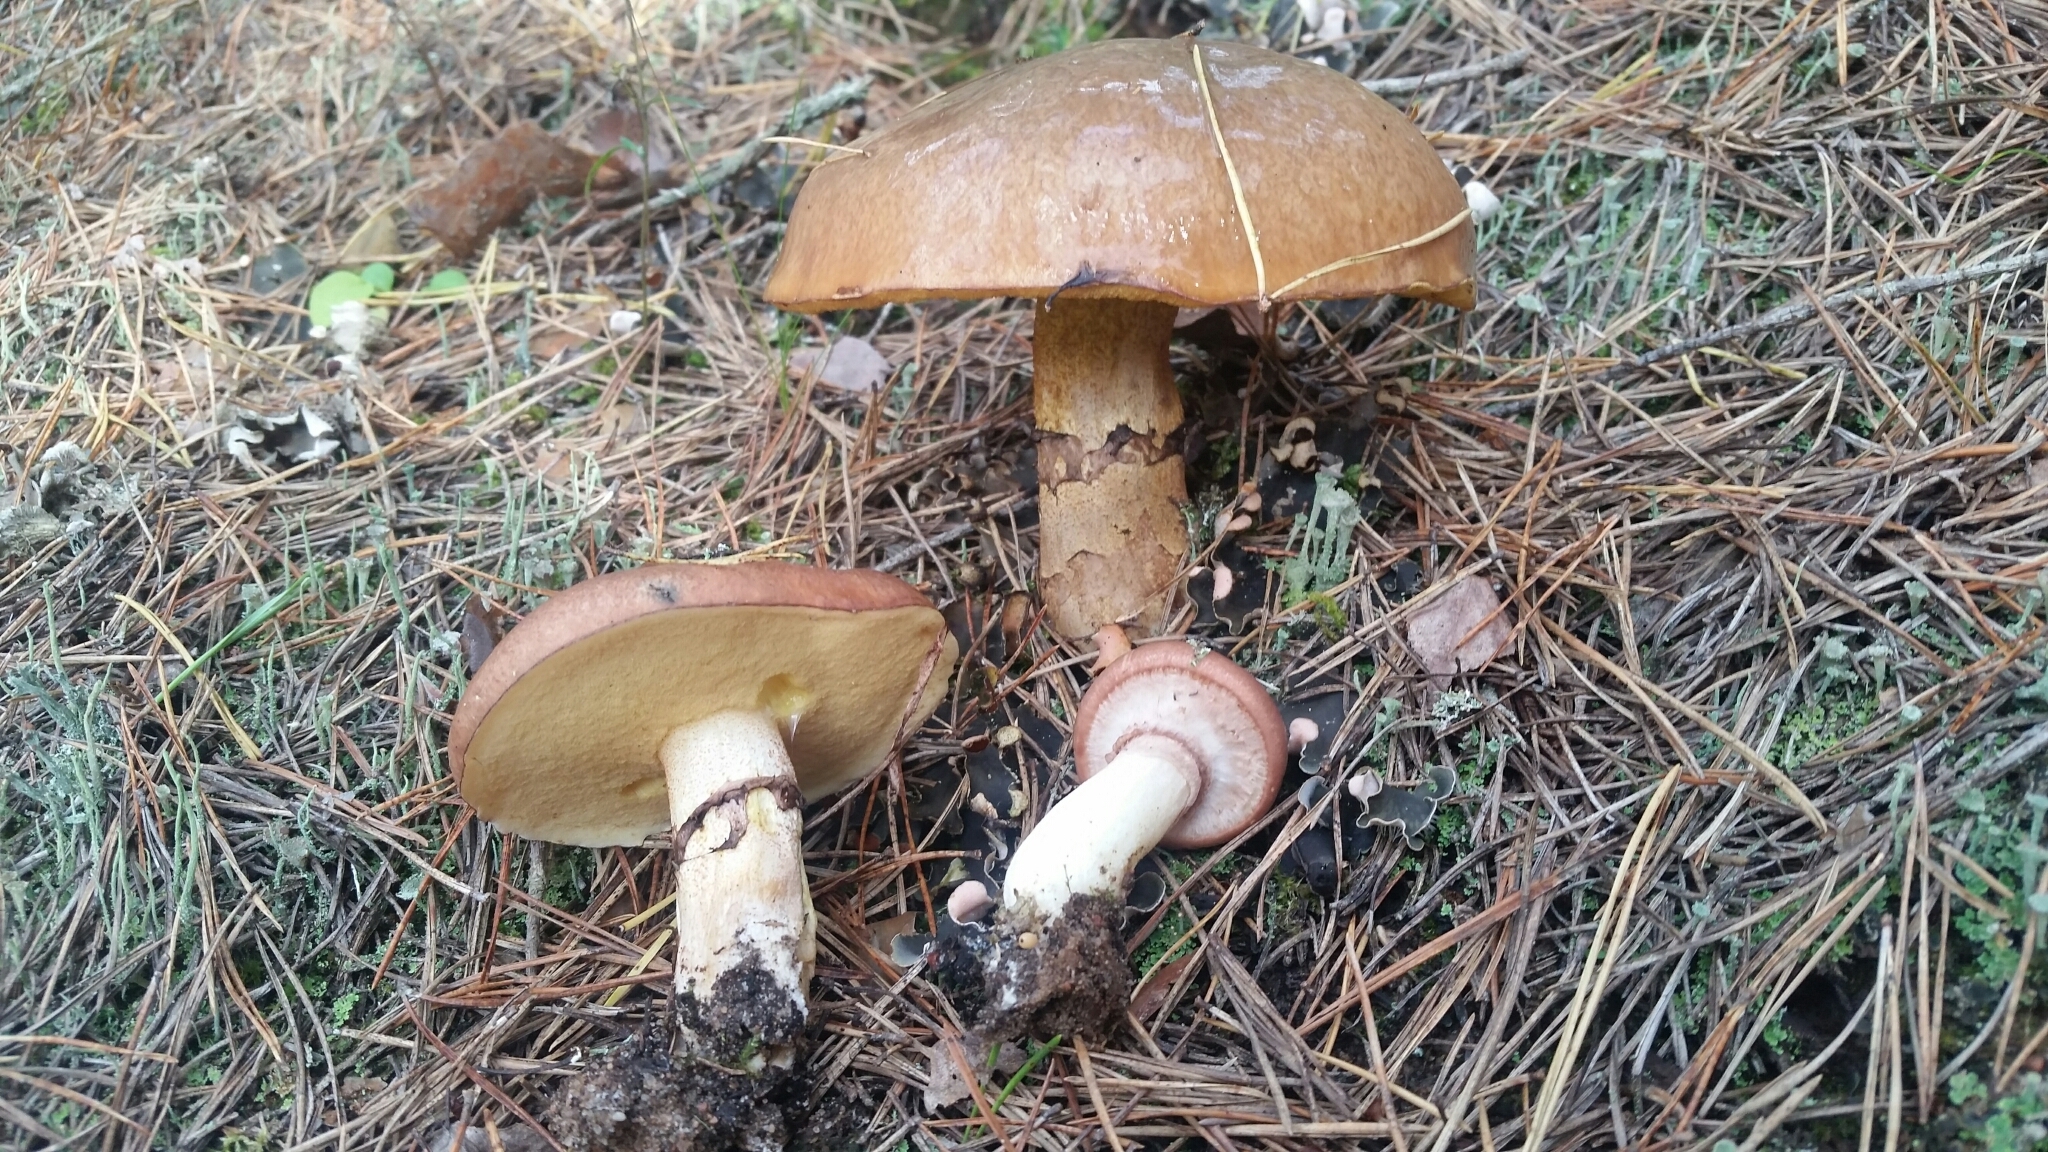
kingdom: Fungi
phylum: Basidiomycota
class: Agaricomycetes
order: Boletales
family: Suillaceae
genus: Suillus
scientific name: Suillus luteus
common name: Slippery jack
